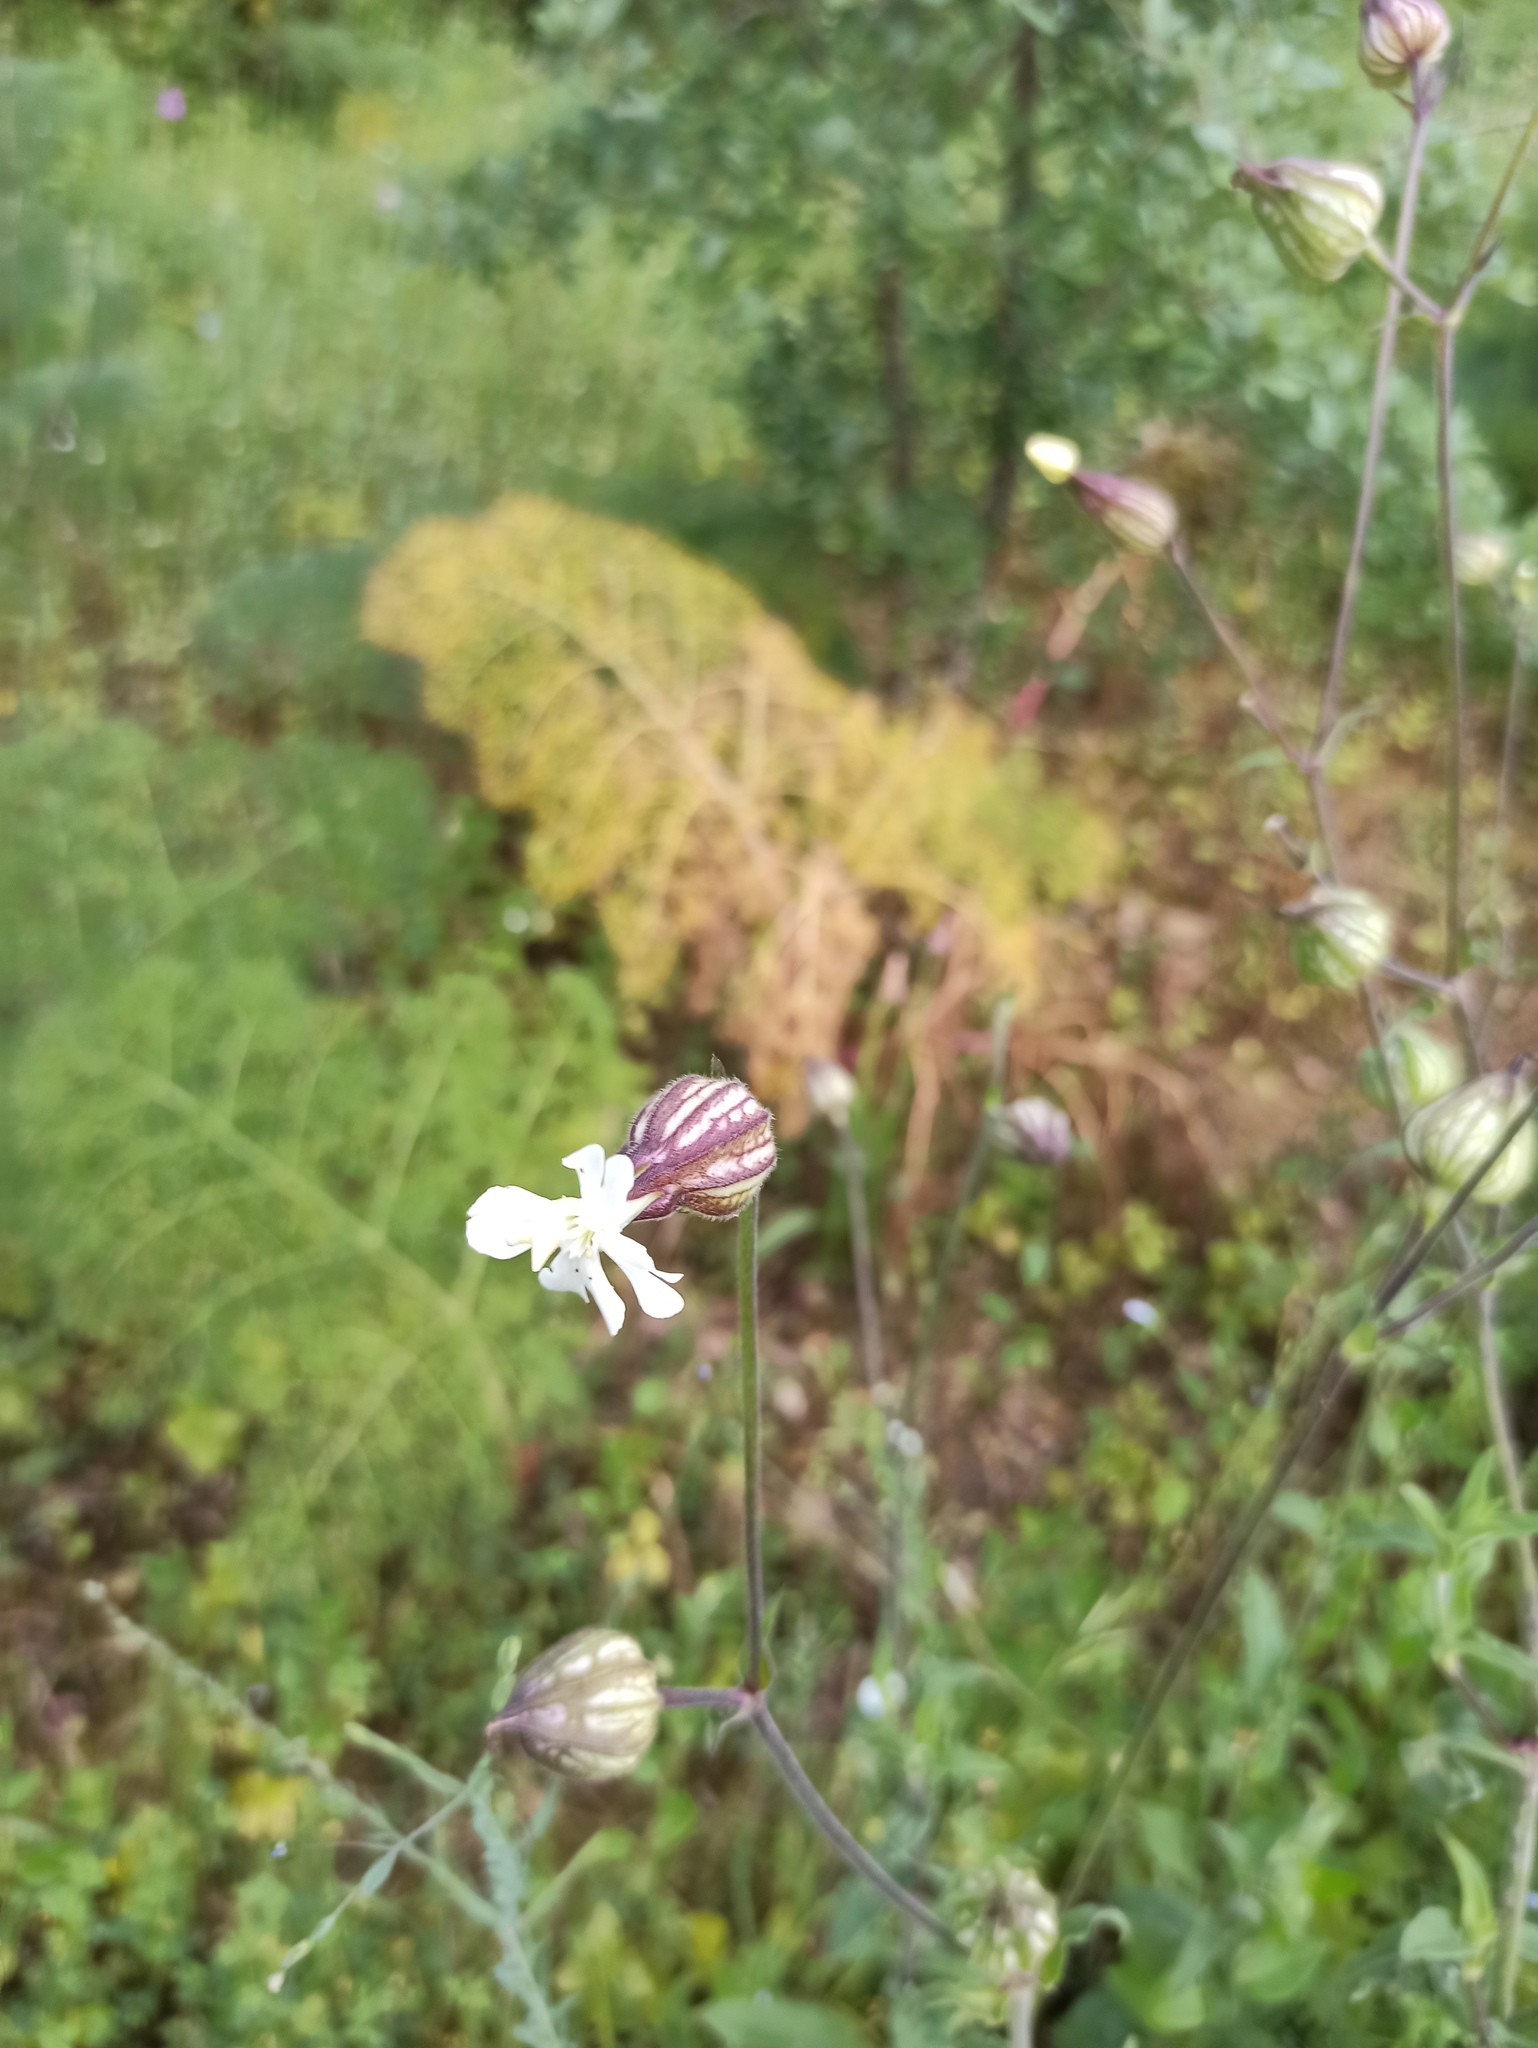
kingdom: Plantae
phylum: Tracheophyta
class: Magnoliopsida
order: Caryophyllales
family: Caryophyllaceae
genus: Silene
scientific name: Silene latifolia
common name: White campion
